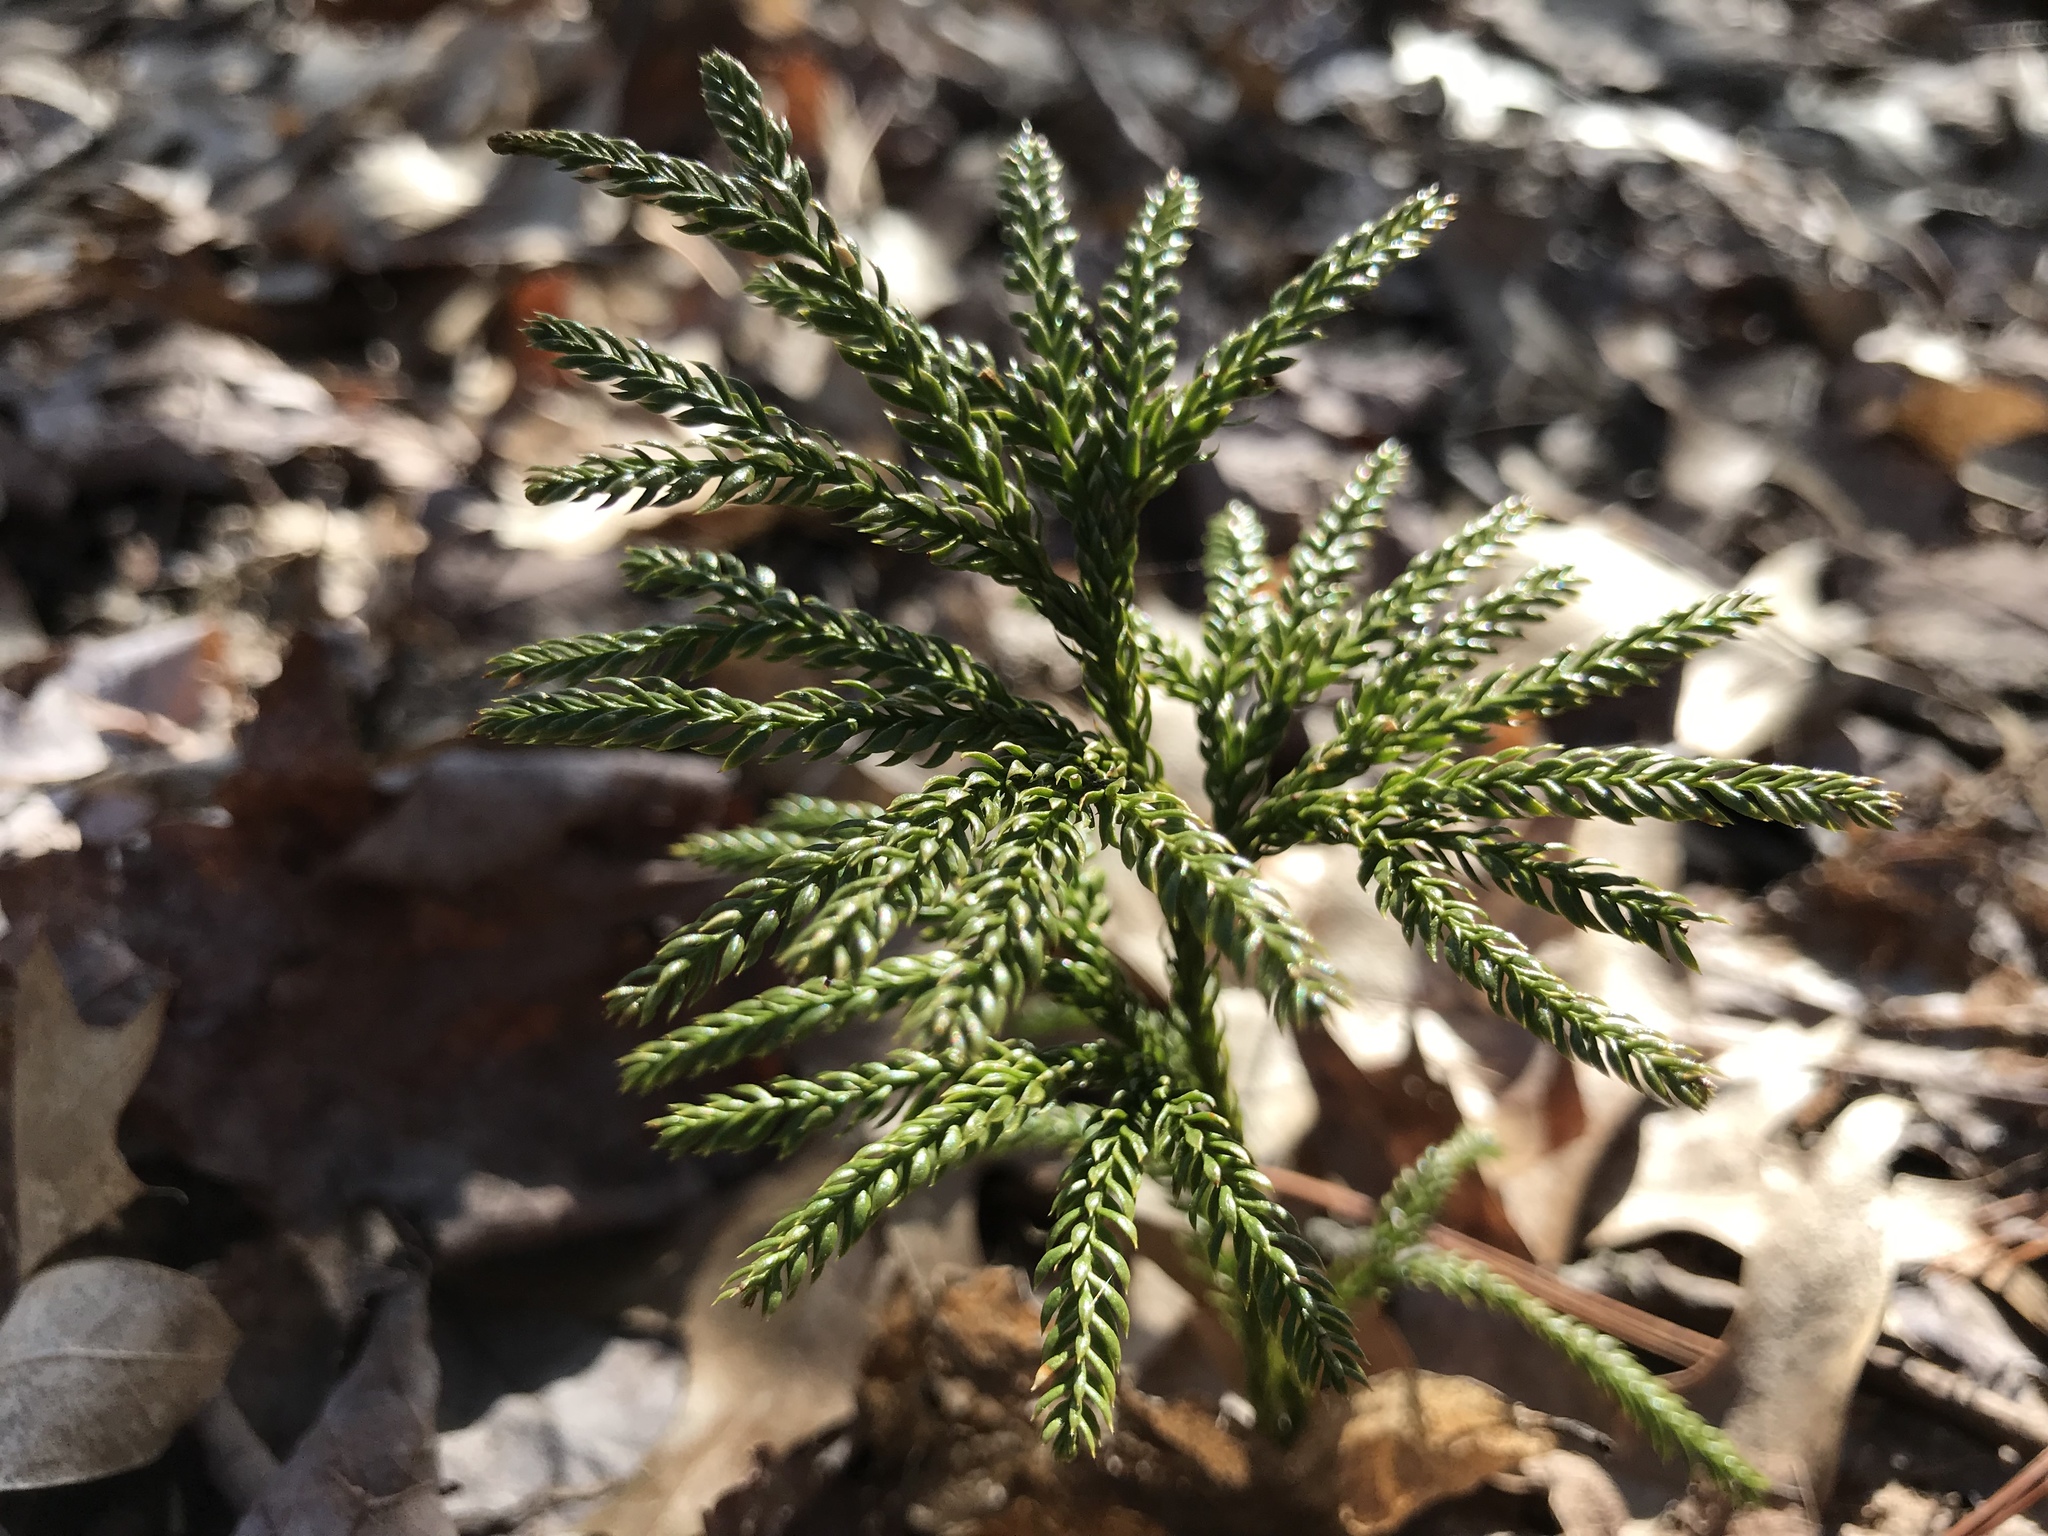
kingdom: Plantae
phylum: Tracheophyta
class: Lycopodiopsida
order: Lycopodiales
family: Lycopodiaceae
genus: Dendrolycopodium
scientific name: Dendrolycopodium obscurum
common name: Common ground-pine
